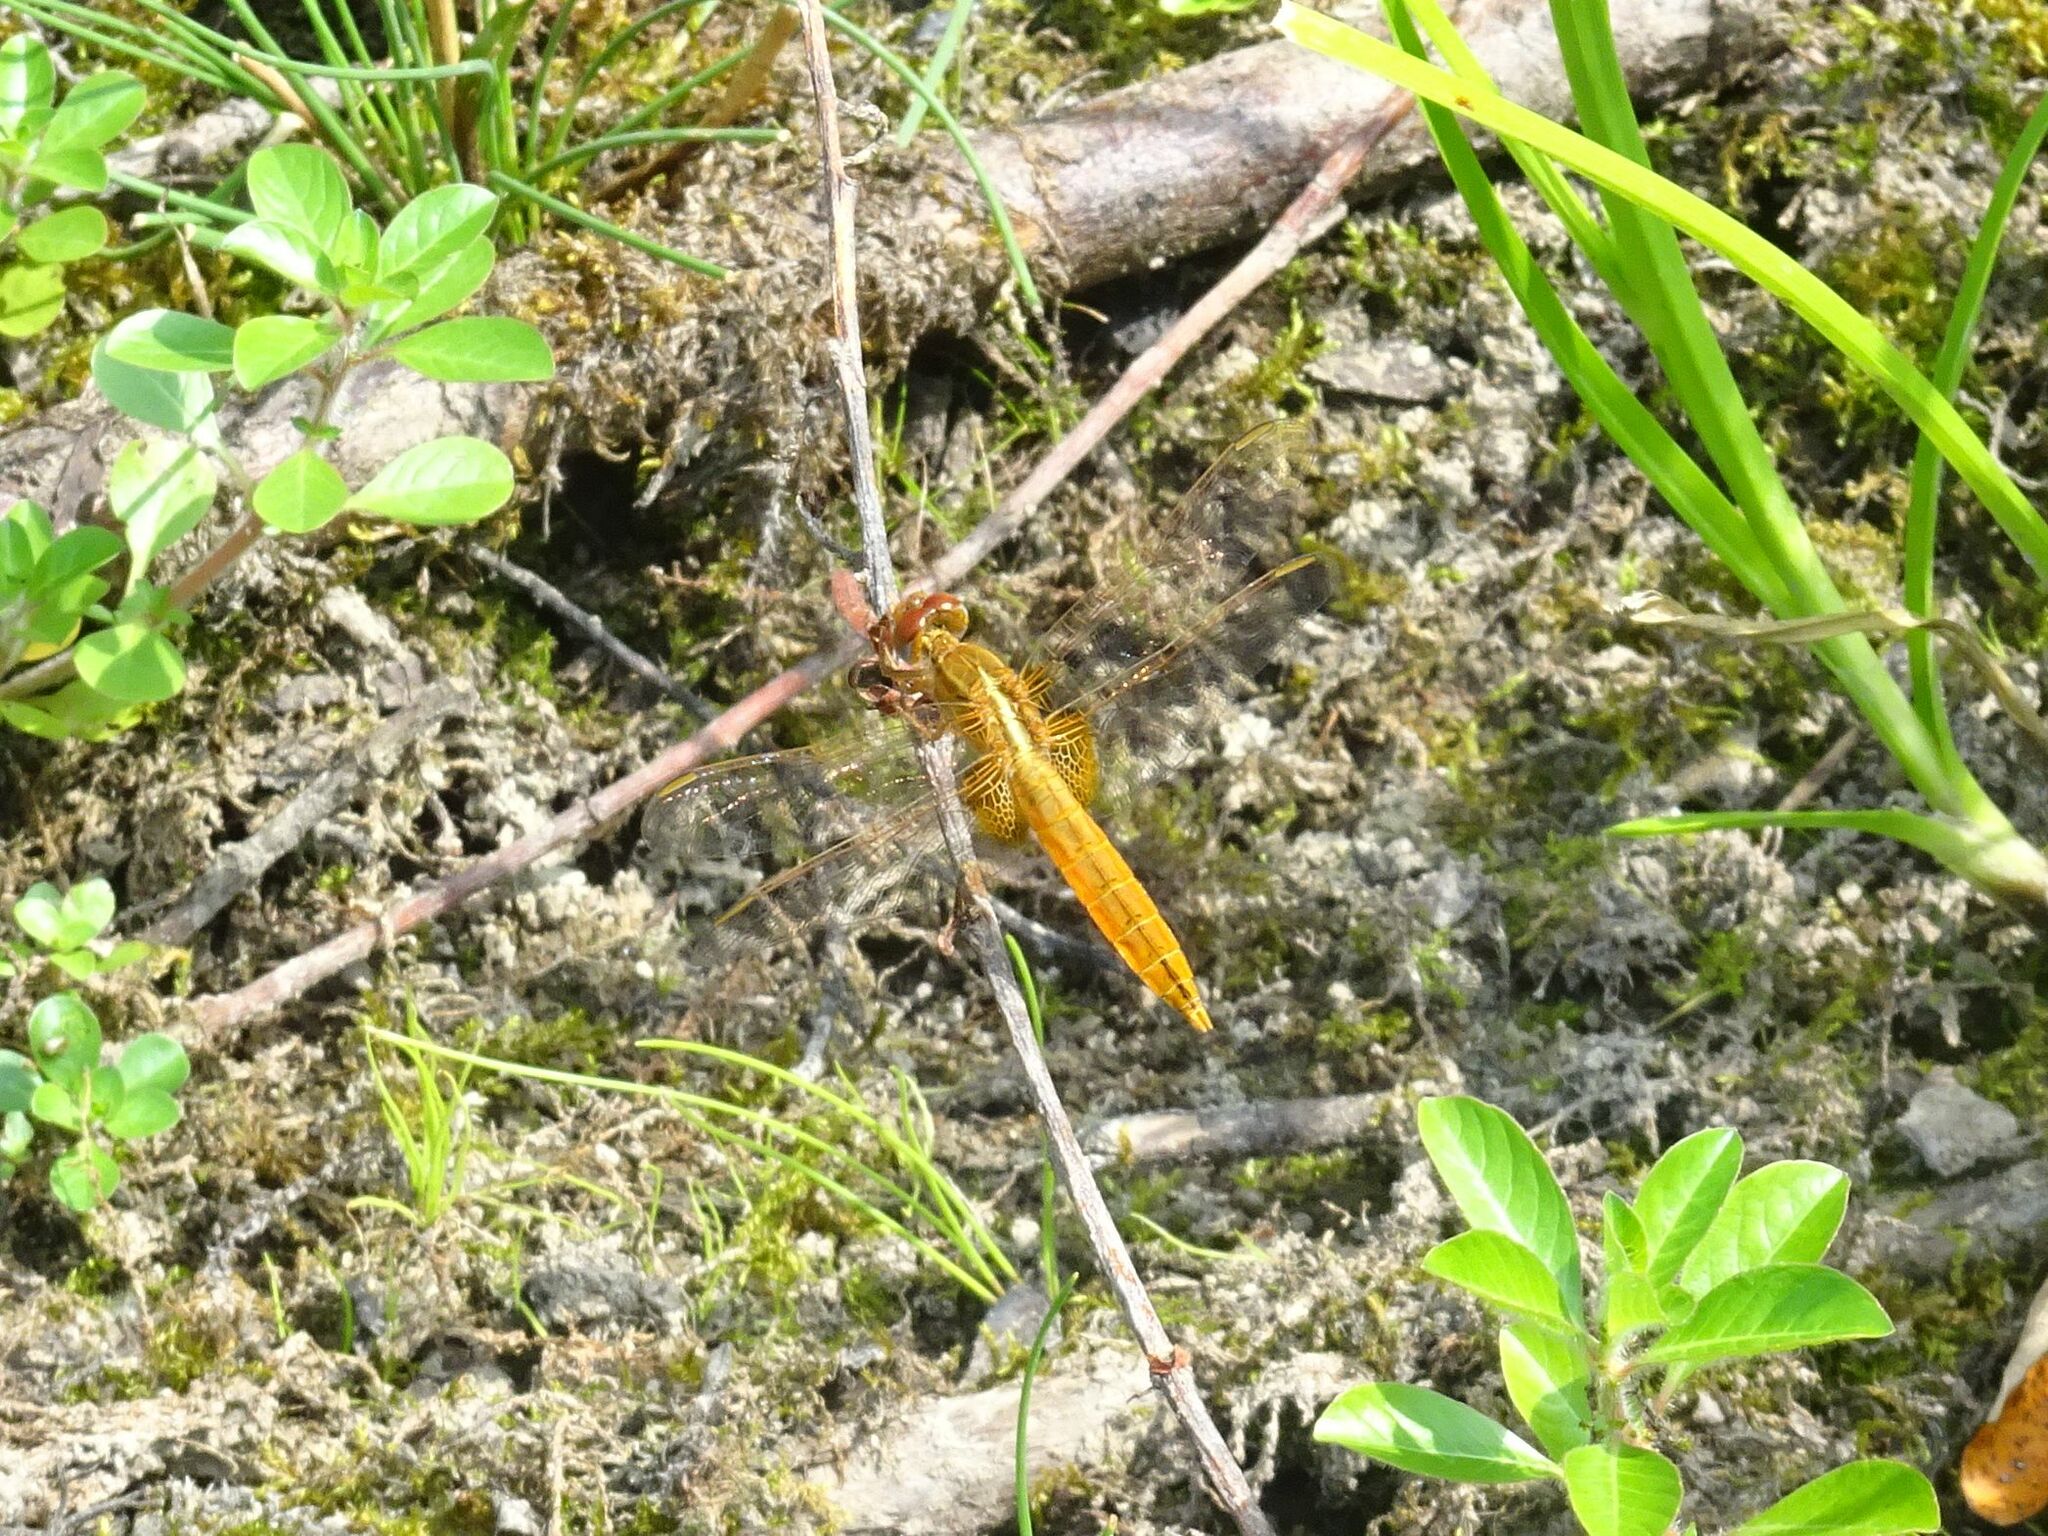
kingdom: Animalia
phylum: Arthropoda
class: Insecta
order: Odonata
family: Libellulidae
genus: Crocothemis
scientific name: Crocothemis erythraea
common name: Scarlet dragonfly
